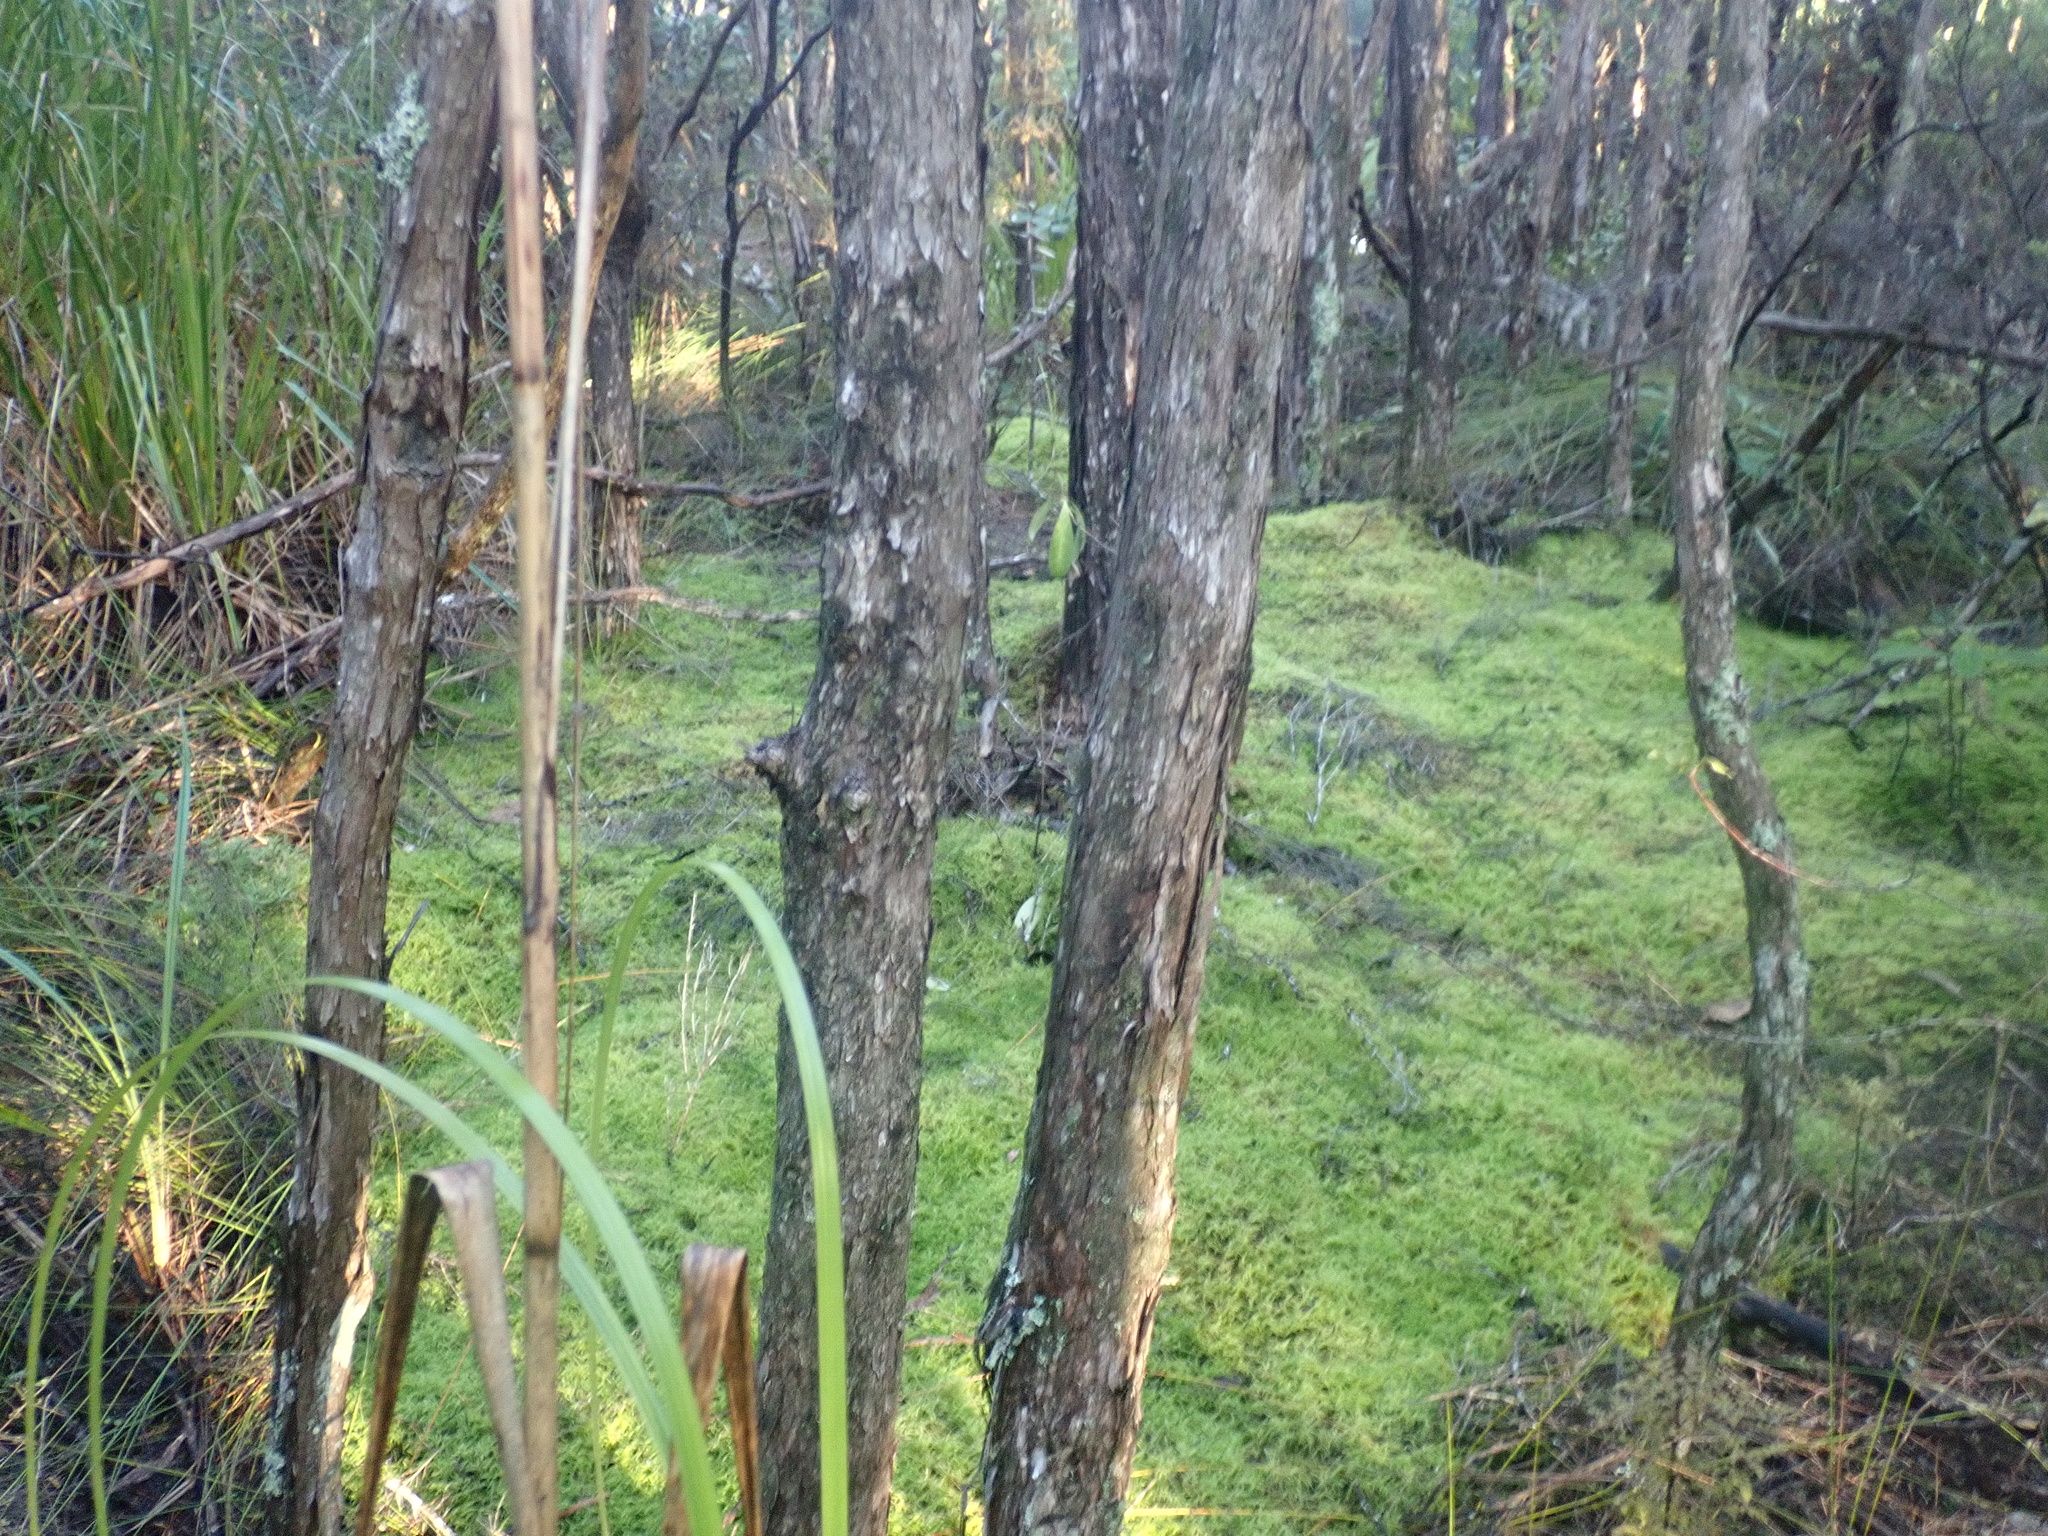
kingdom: Plantae
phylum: Tracheophyta
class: Liliopsida
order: Poales
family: Cyperaceae
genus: Gahnia
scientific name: Gahnia xanthocarpa
